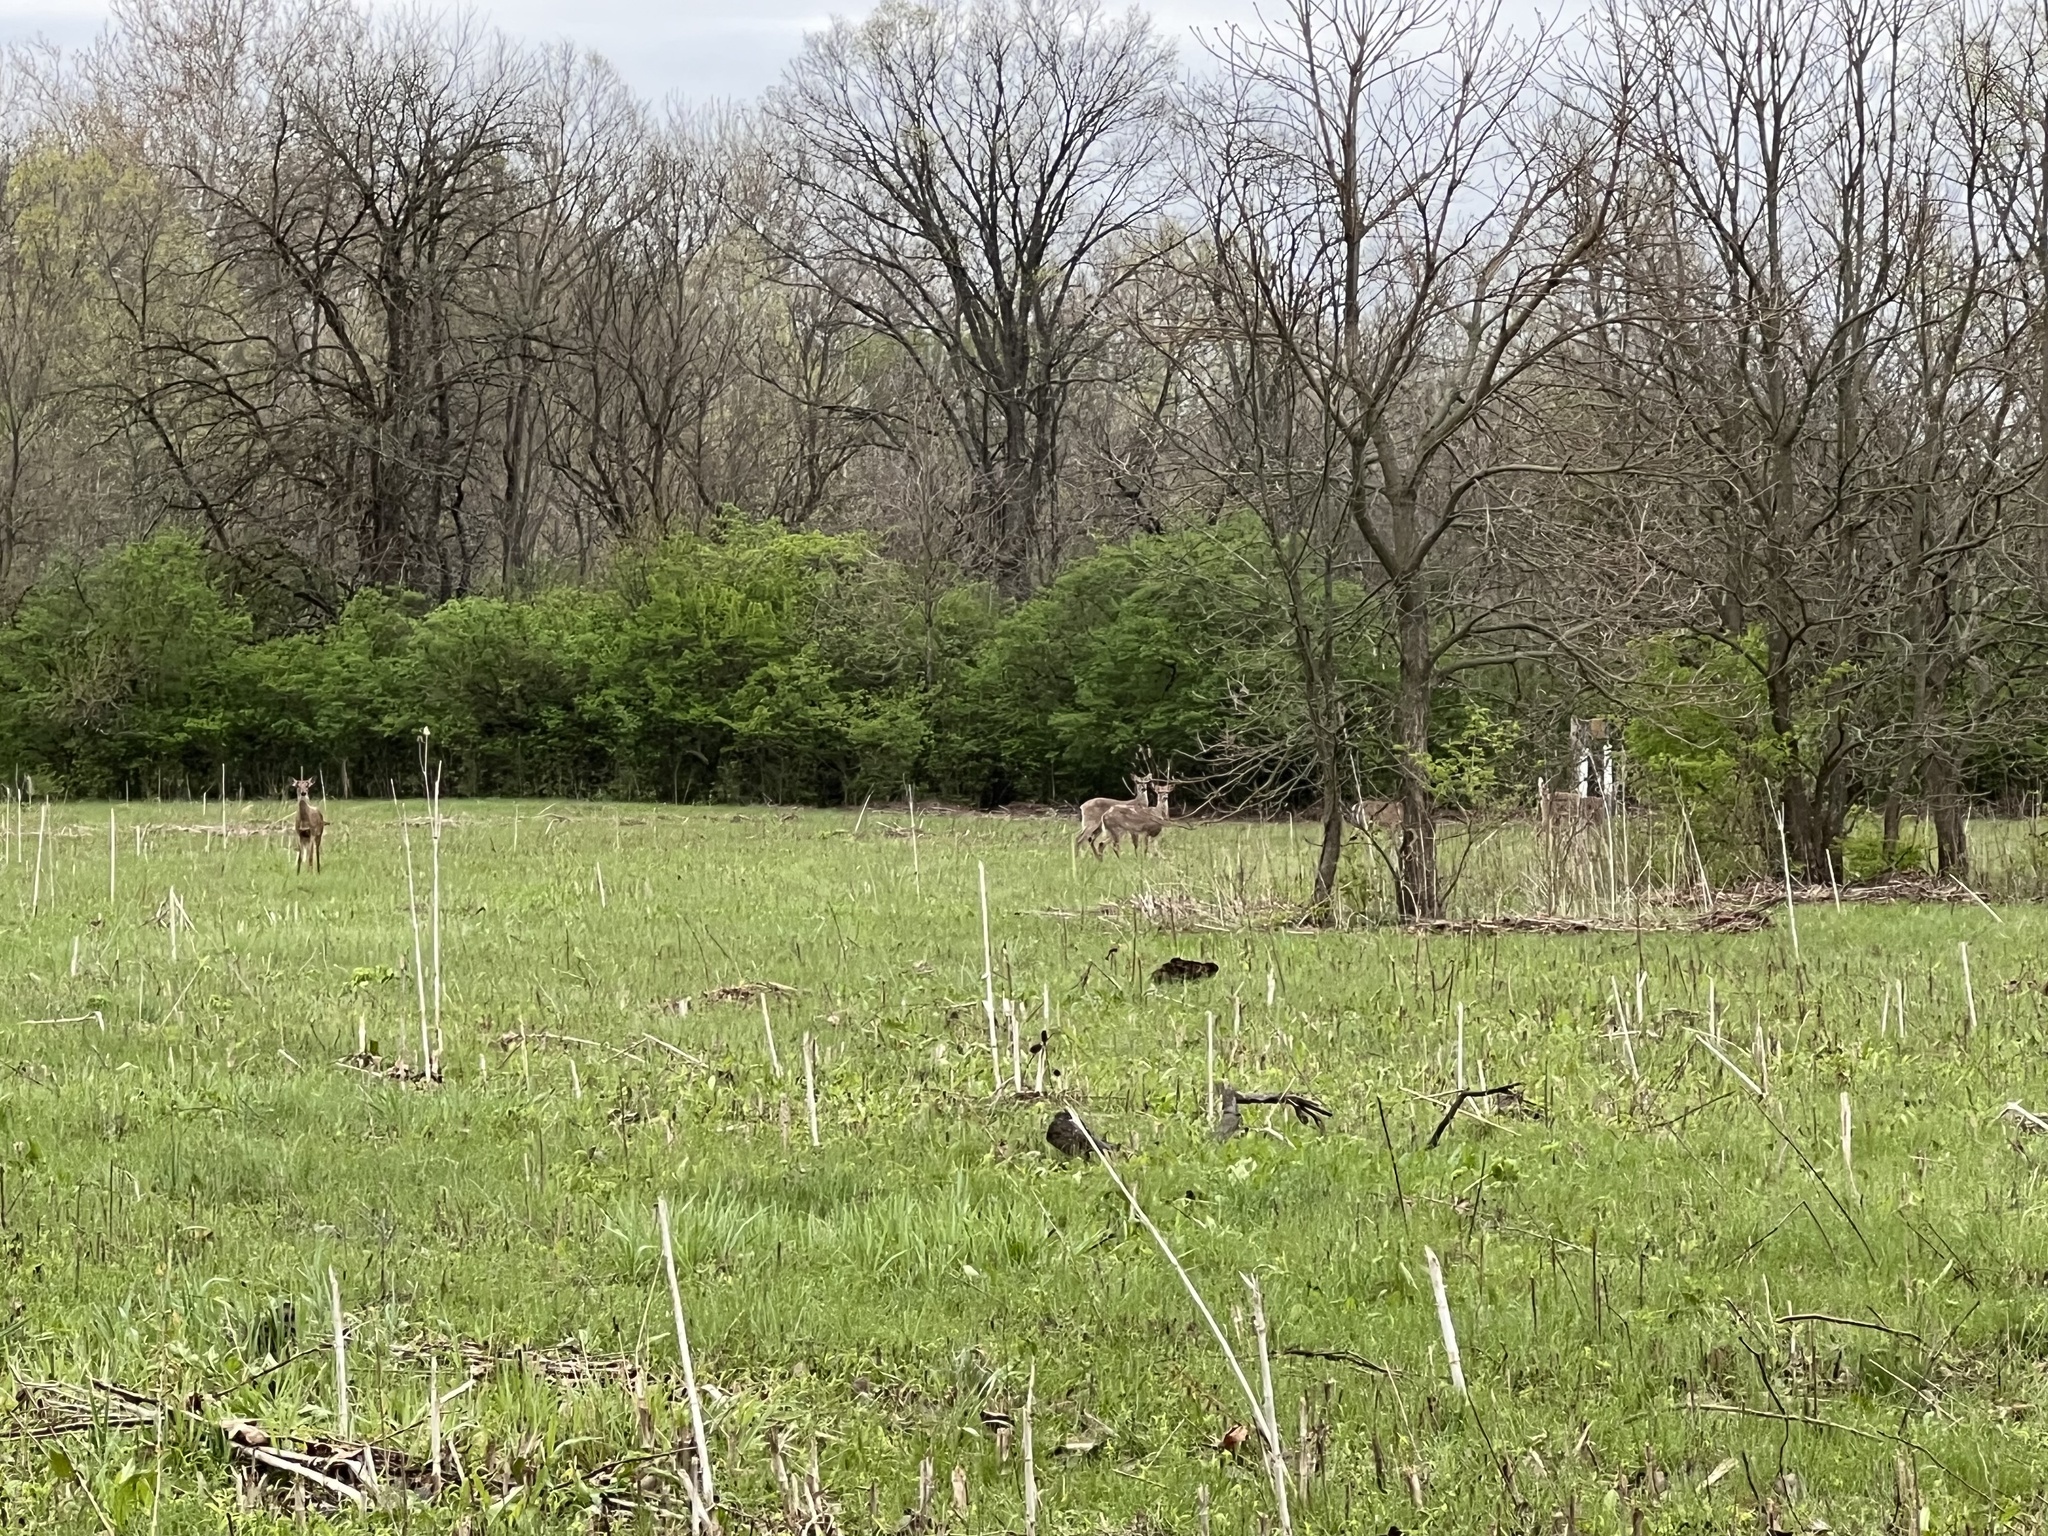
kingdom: Animalia
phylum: Chordata
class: Mammalia
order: Artiodactyla
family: Cervidae
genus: Odocoileus
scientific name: Odocoileus virginianus
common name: White-tailed deer
